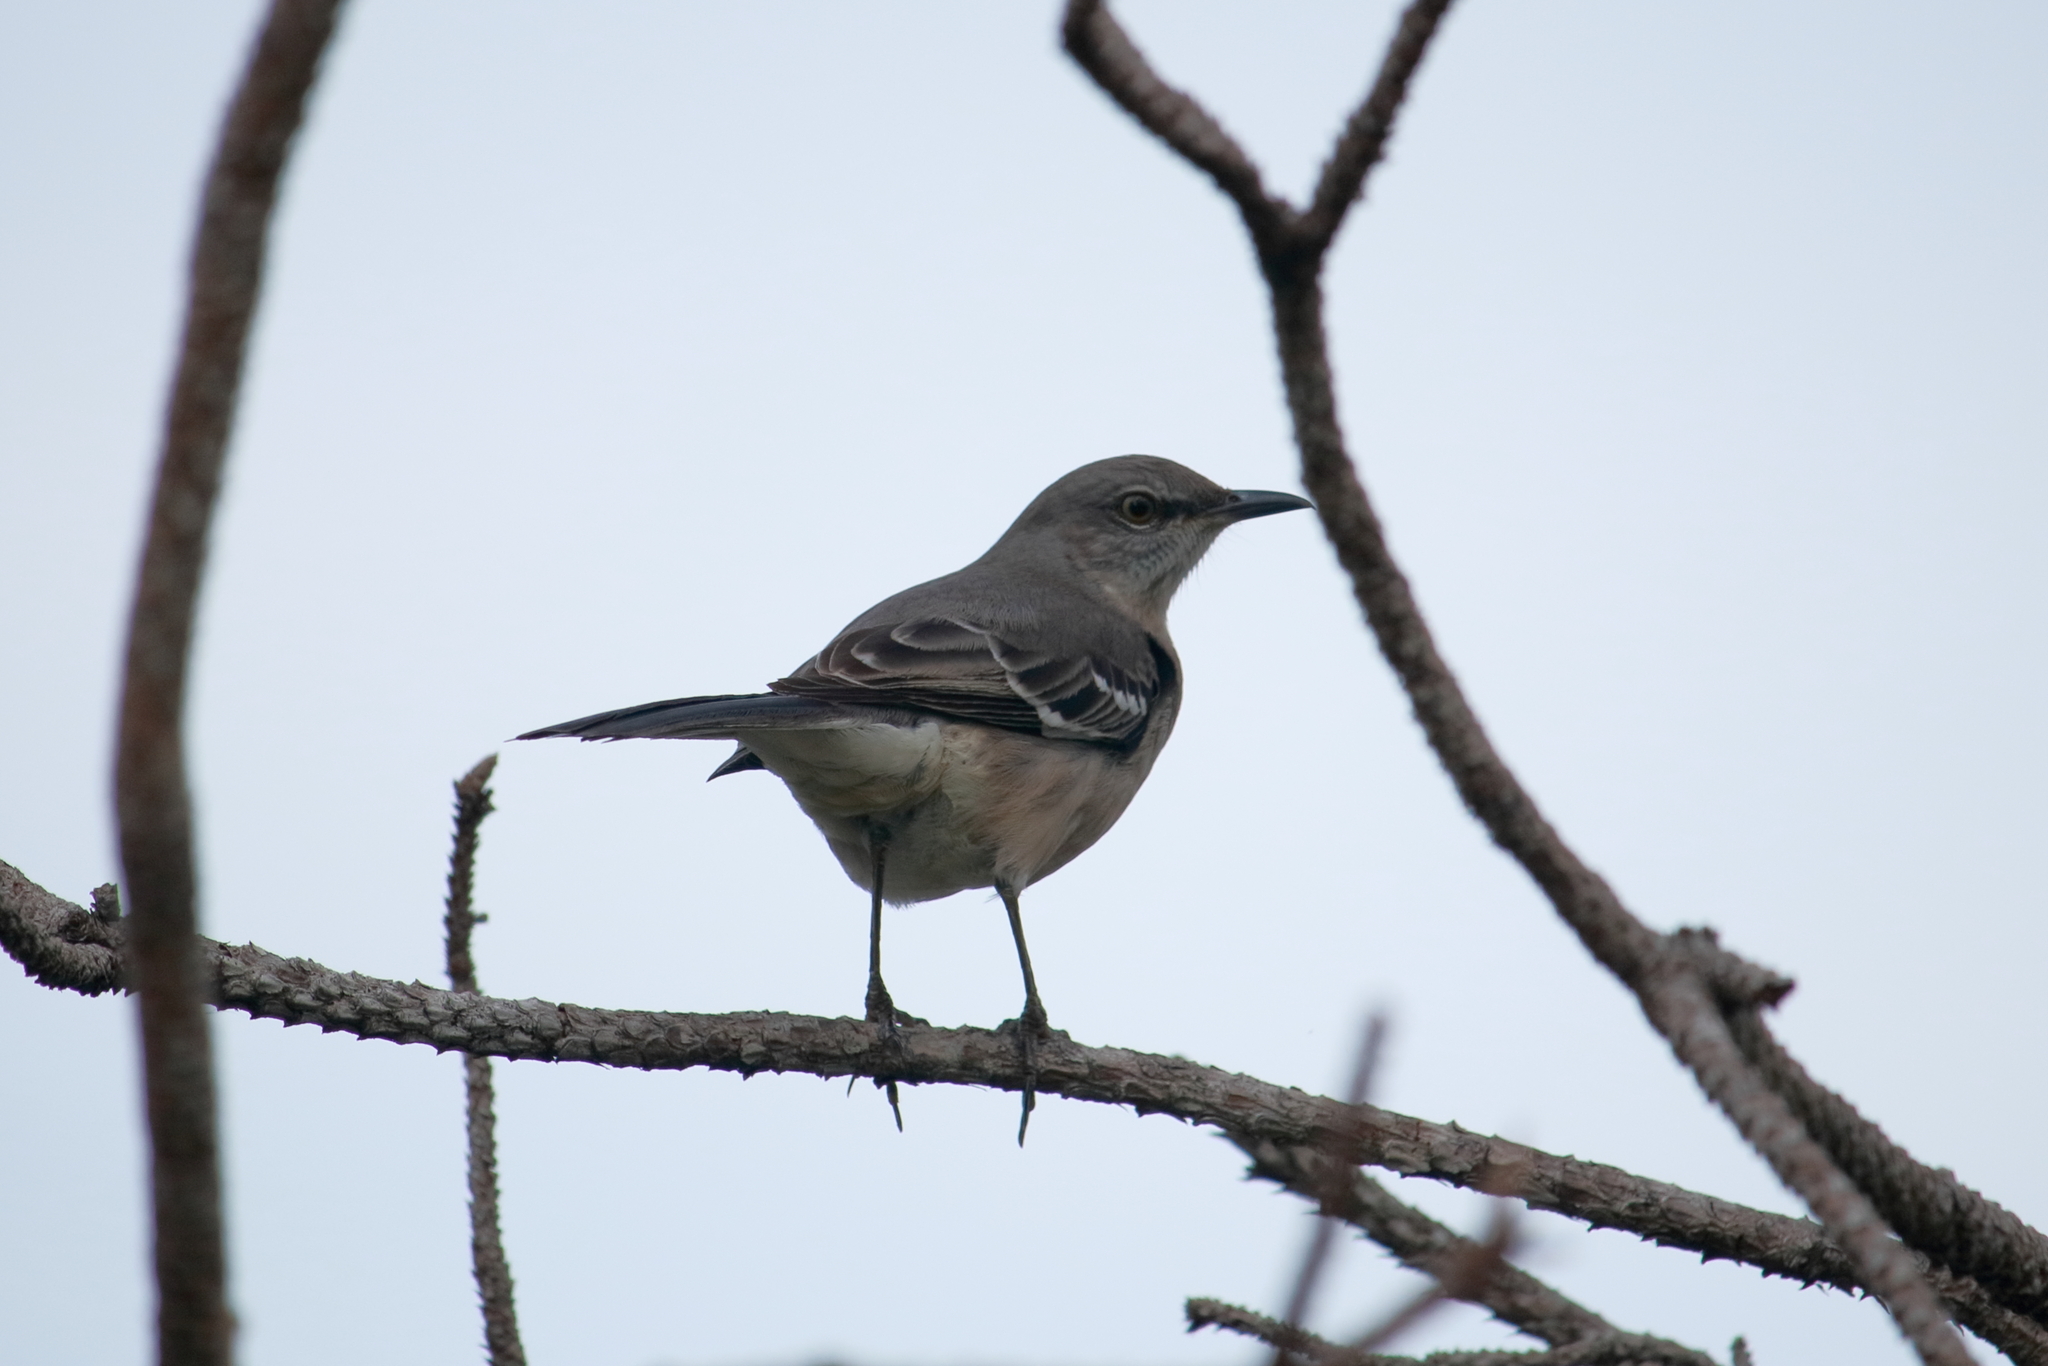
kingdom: Animalia
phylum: Chordata
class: Aves
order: Passeriformes
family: Mimidae
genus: Mimus
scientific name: Mimus polyglottos
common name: Northern mockingbird
